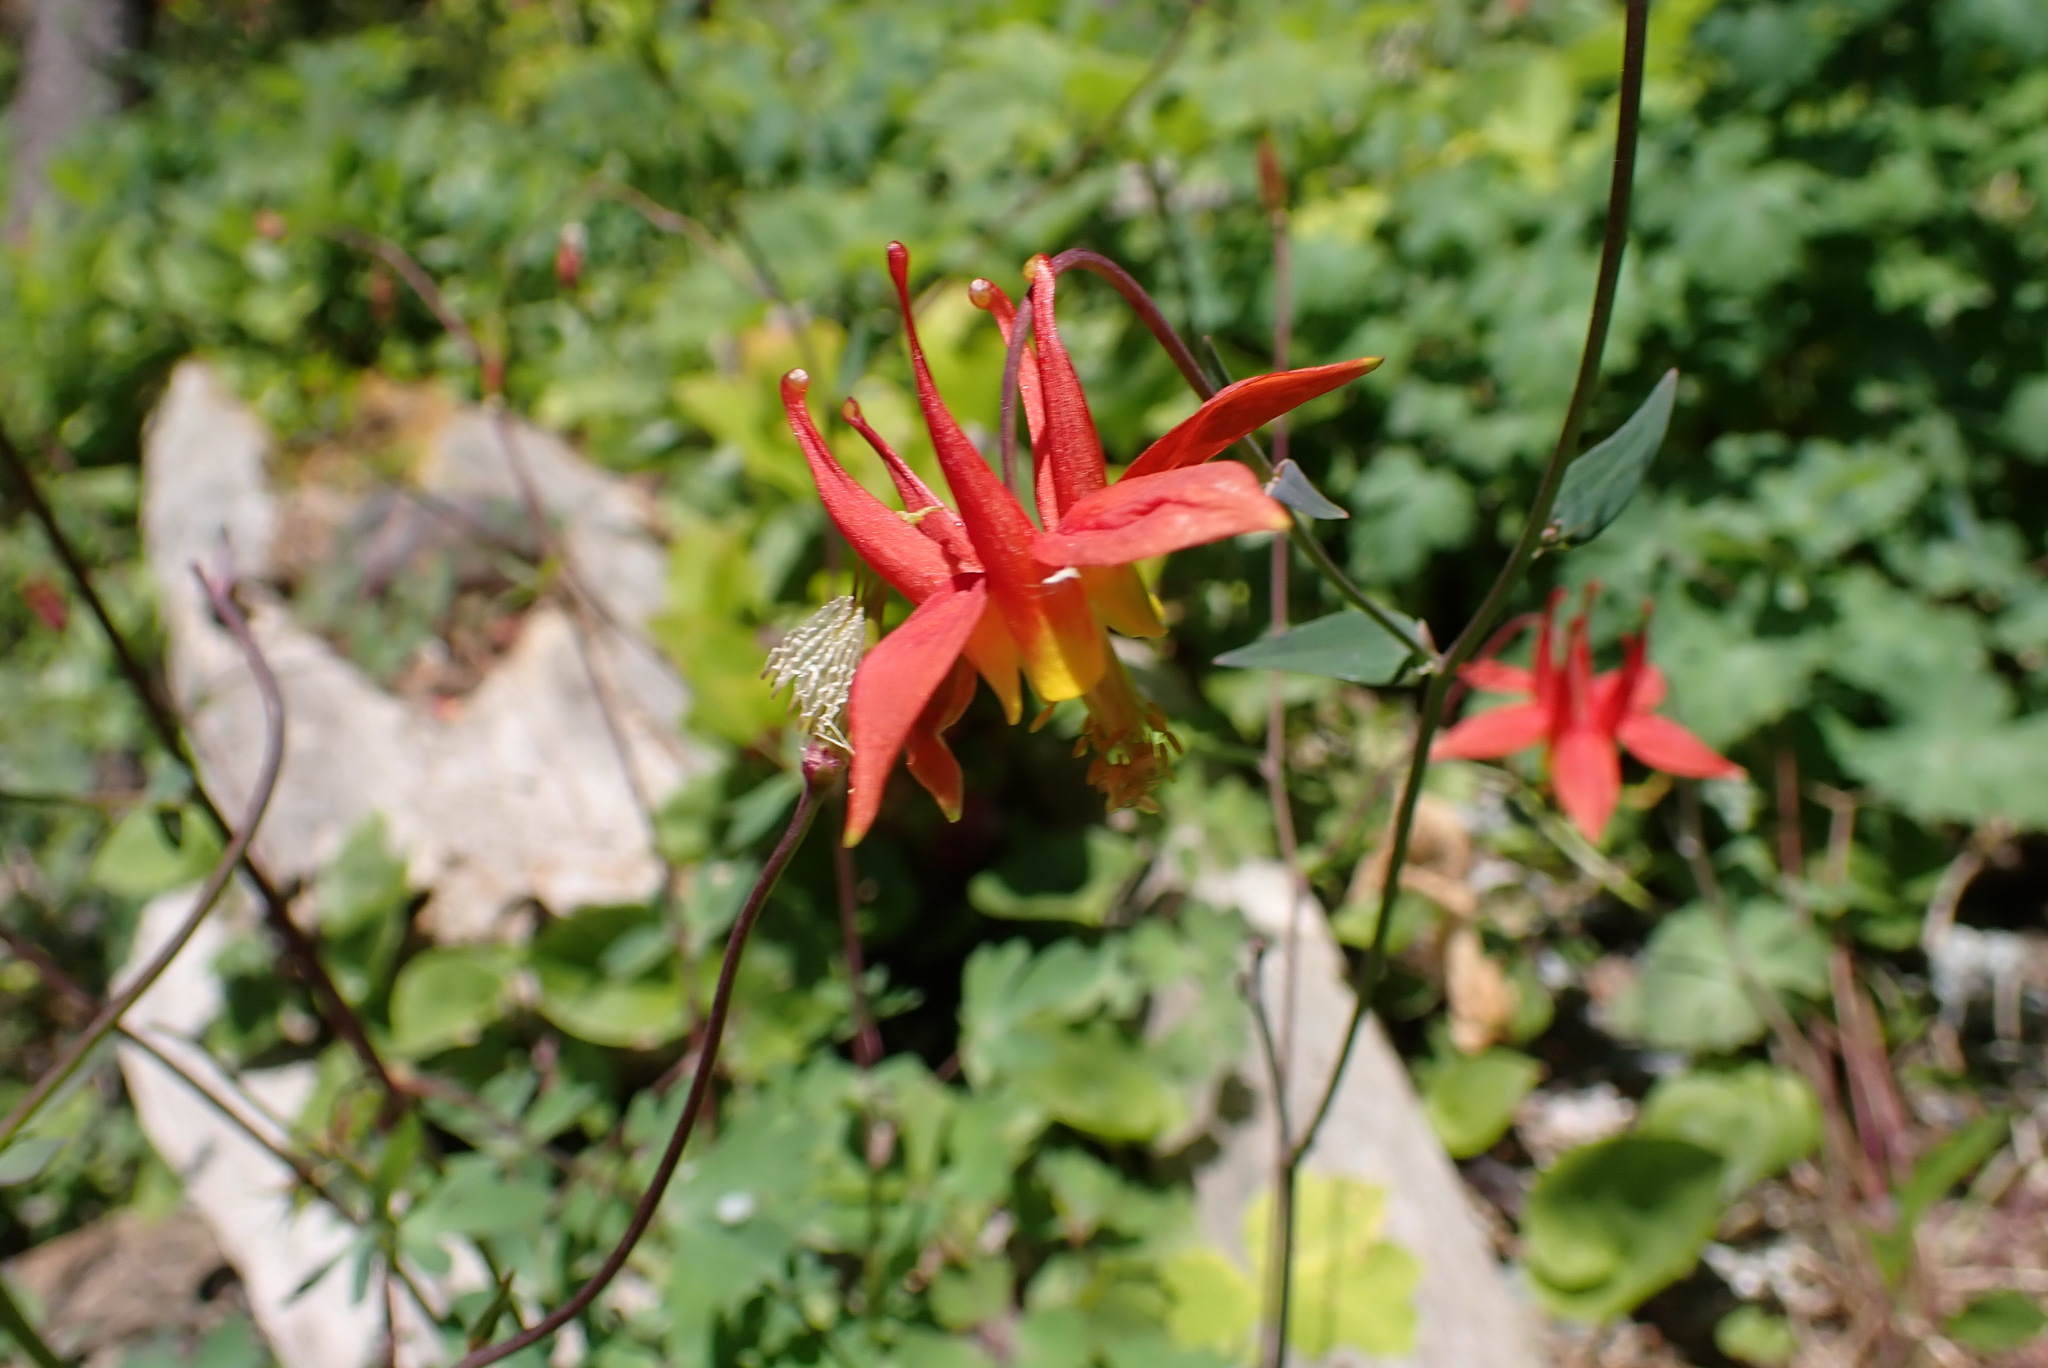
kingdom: Plantae
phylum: Tracheophyta
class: Magnoliopsida
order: Ranunculales
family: Ranunculaceae
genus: Aquilegia
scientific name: Aquilegia formosa
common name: Sitka columbine
